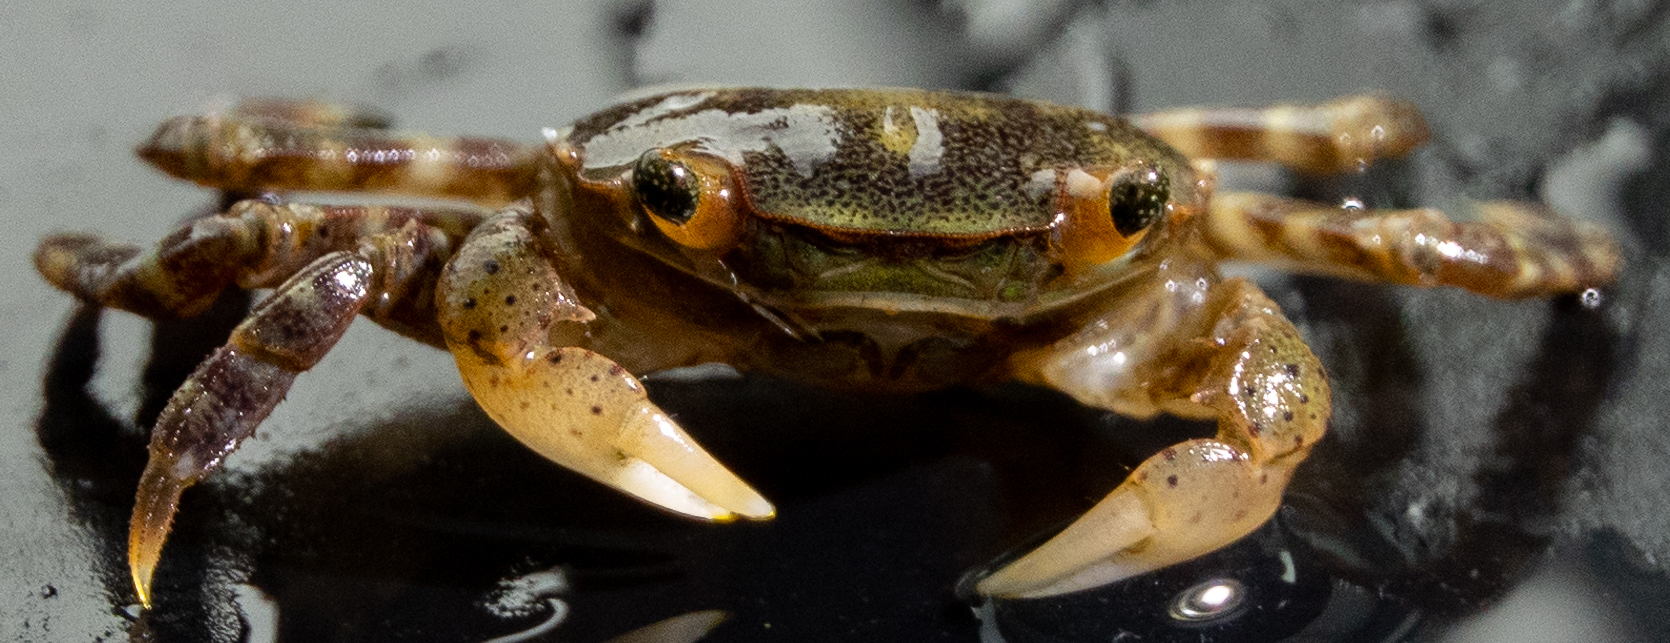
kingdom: Animalia
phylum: Arthropoda
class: Malacostraca
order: Decapoda
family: Varunidae
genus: Hemigrapsus
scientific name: Hemigrapsus sanguineus
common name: Asian shore crab
